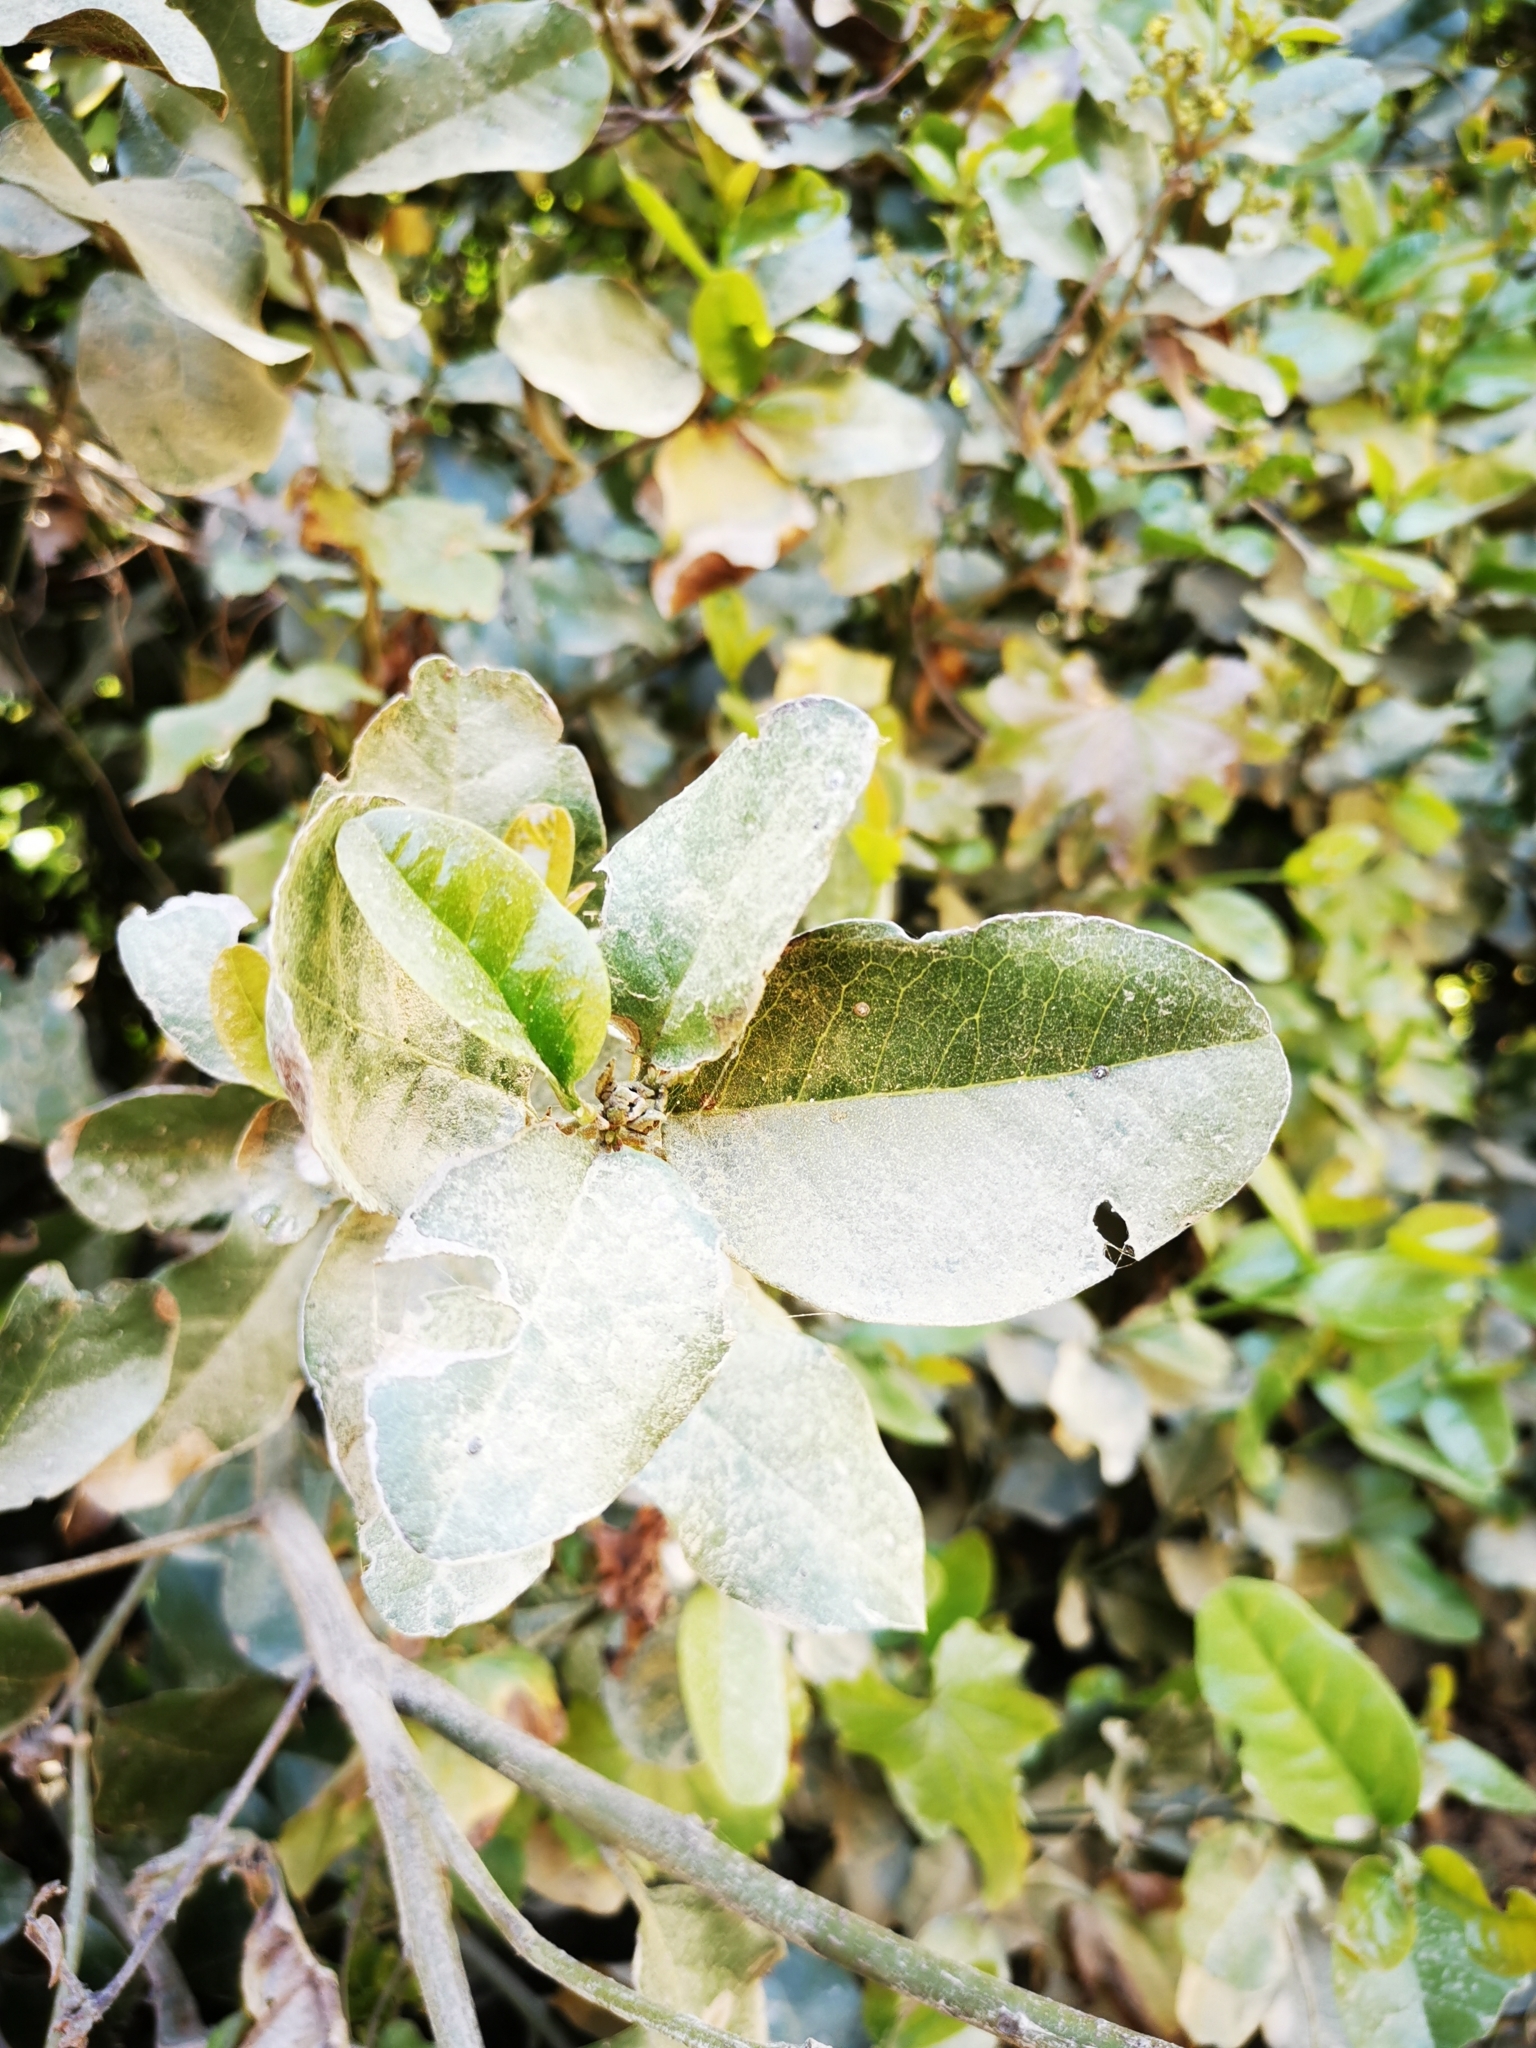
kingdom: Plantae
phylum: Tracheophyta
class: Magnoliopsida
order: Laurales
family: Lauraceae
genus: Beilschmiedia
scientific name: Beilschmiedia miersii
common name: Bellota
